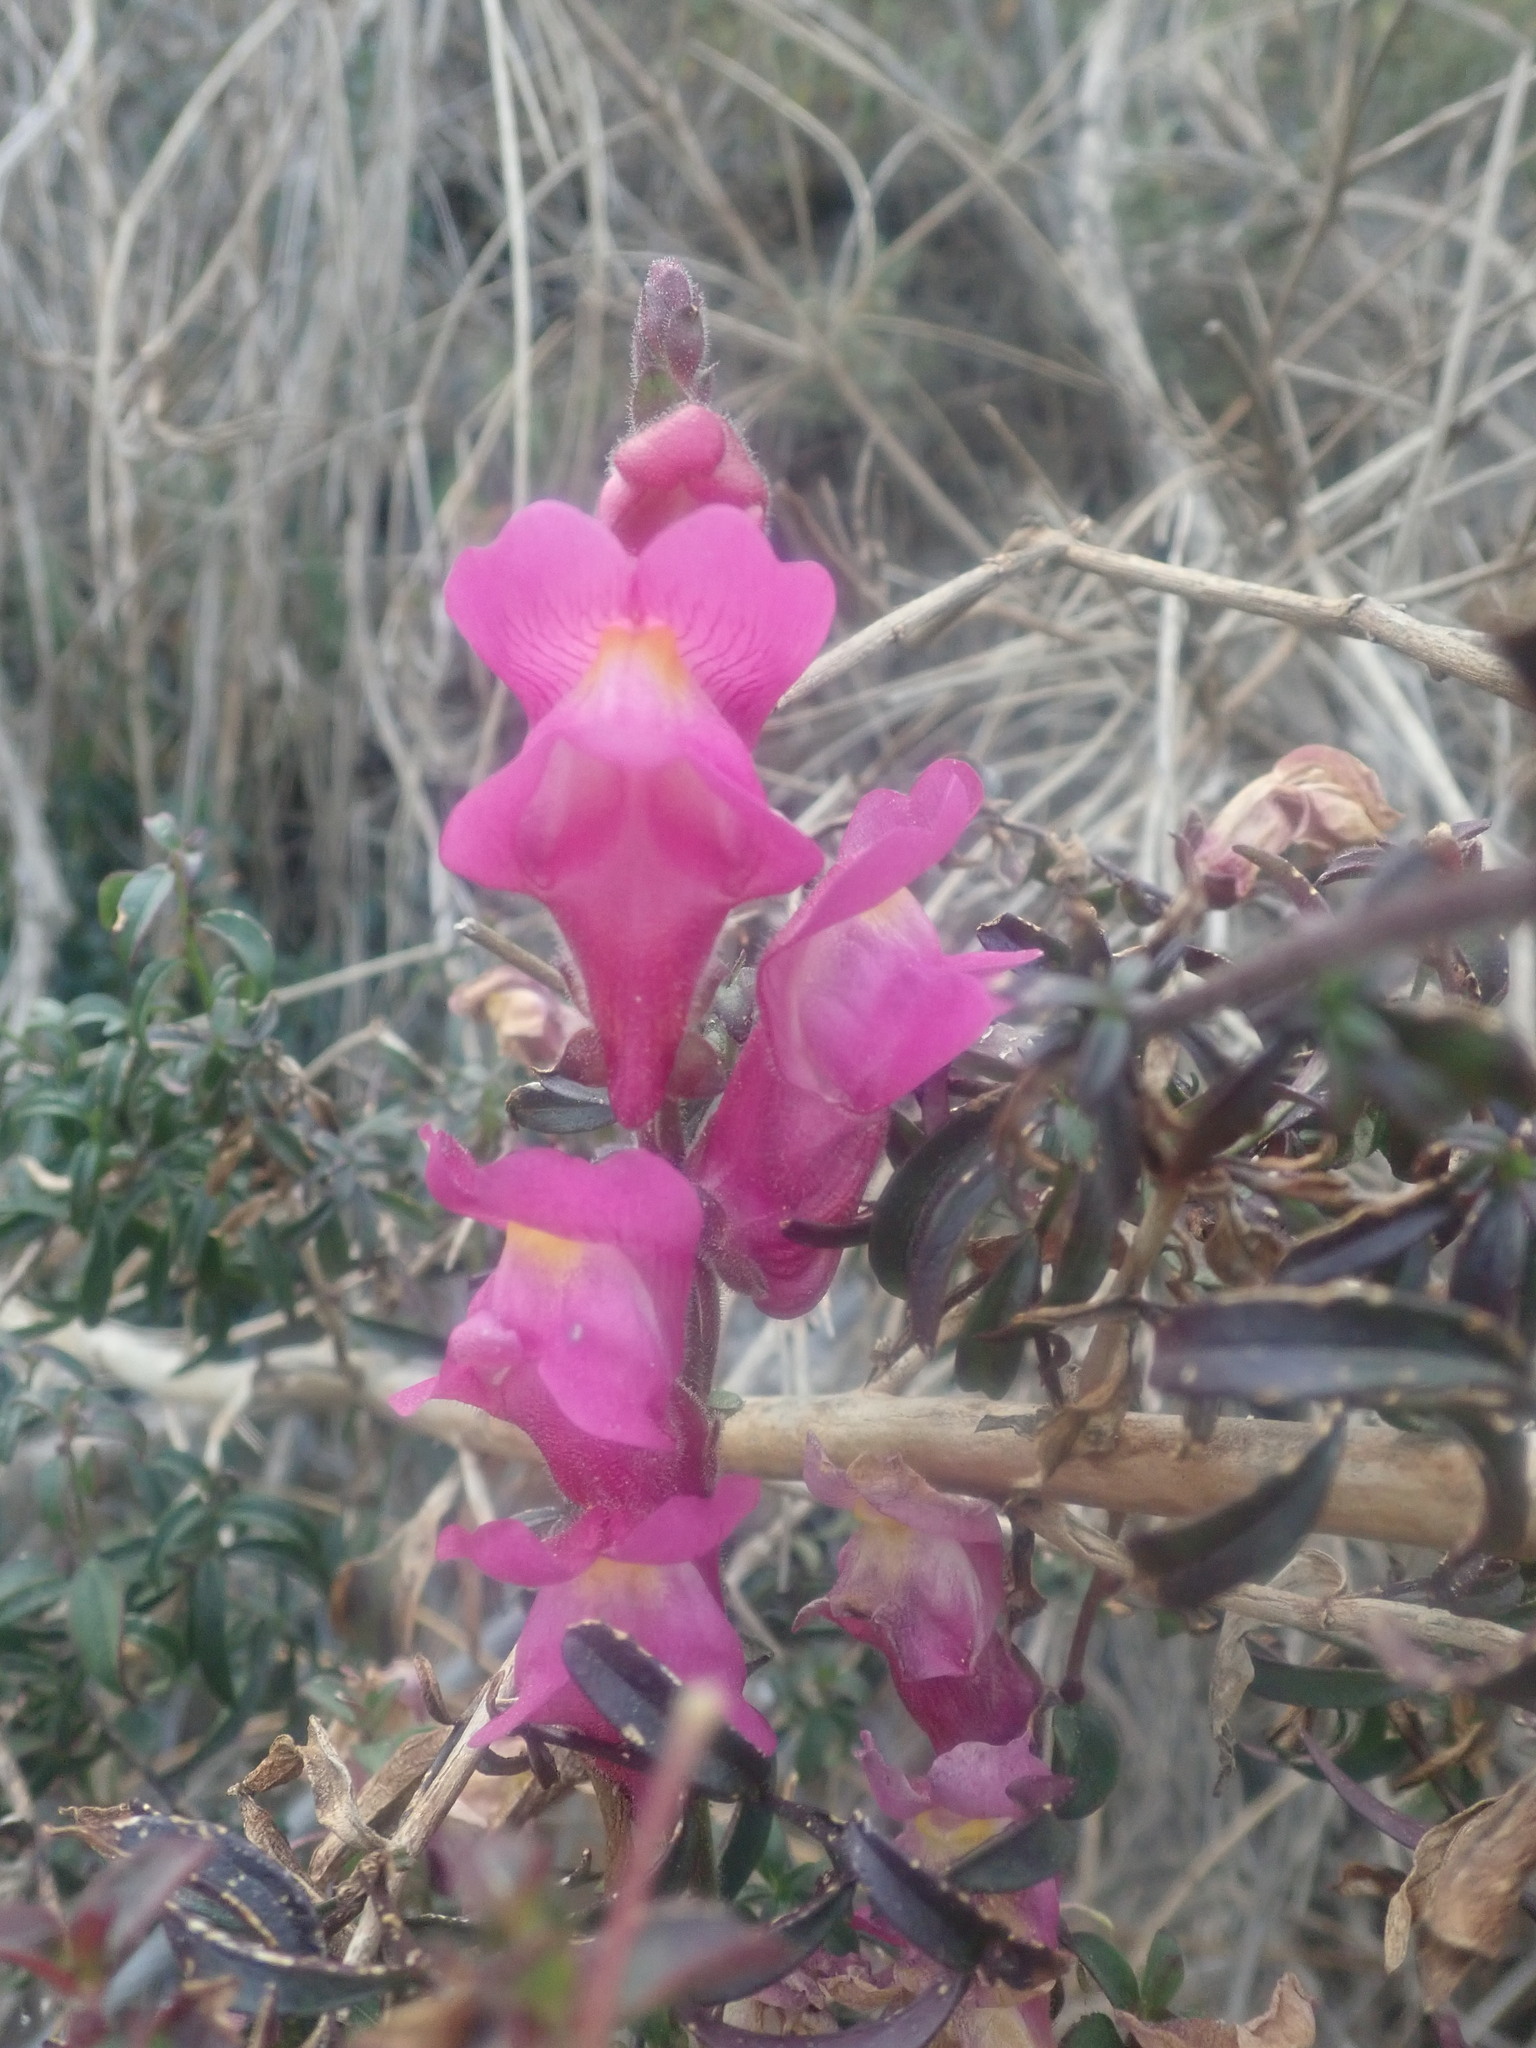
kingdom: Plantae
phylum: Tracheophyta
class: Magnoliopsida
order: Lamiales
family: Plantaginaceae
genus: Antirrhinum
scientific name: Antirrhinum majus
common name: Snapdragon
